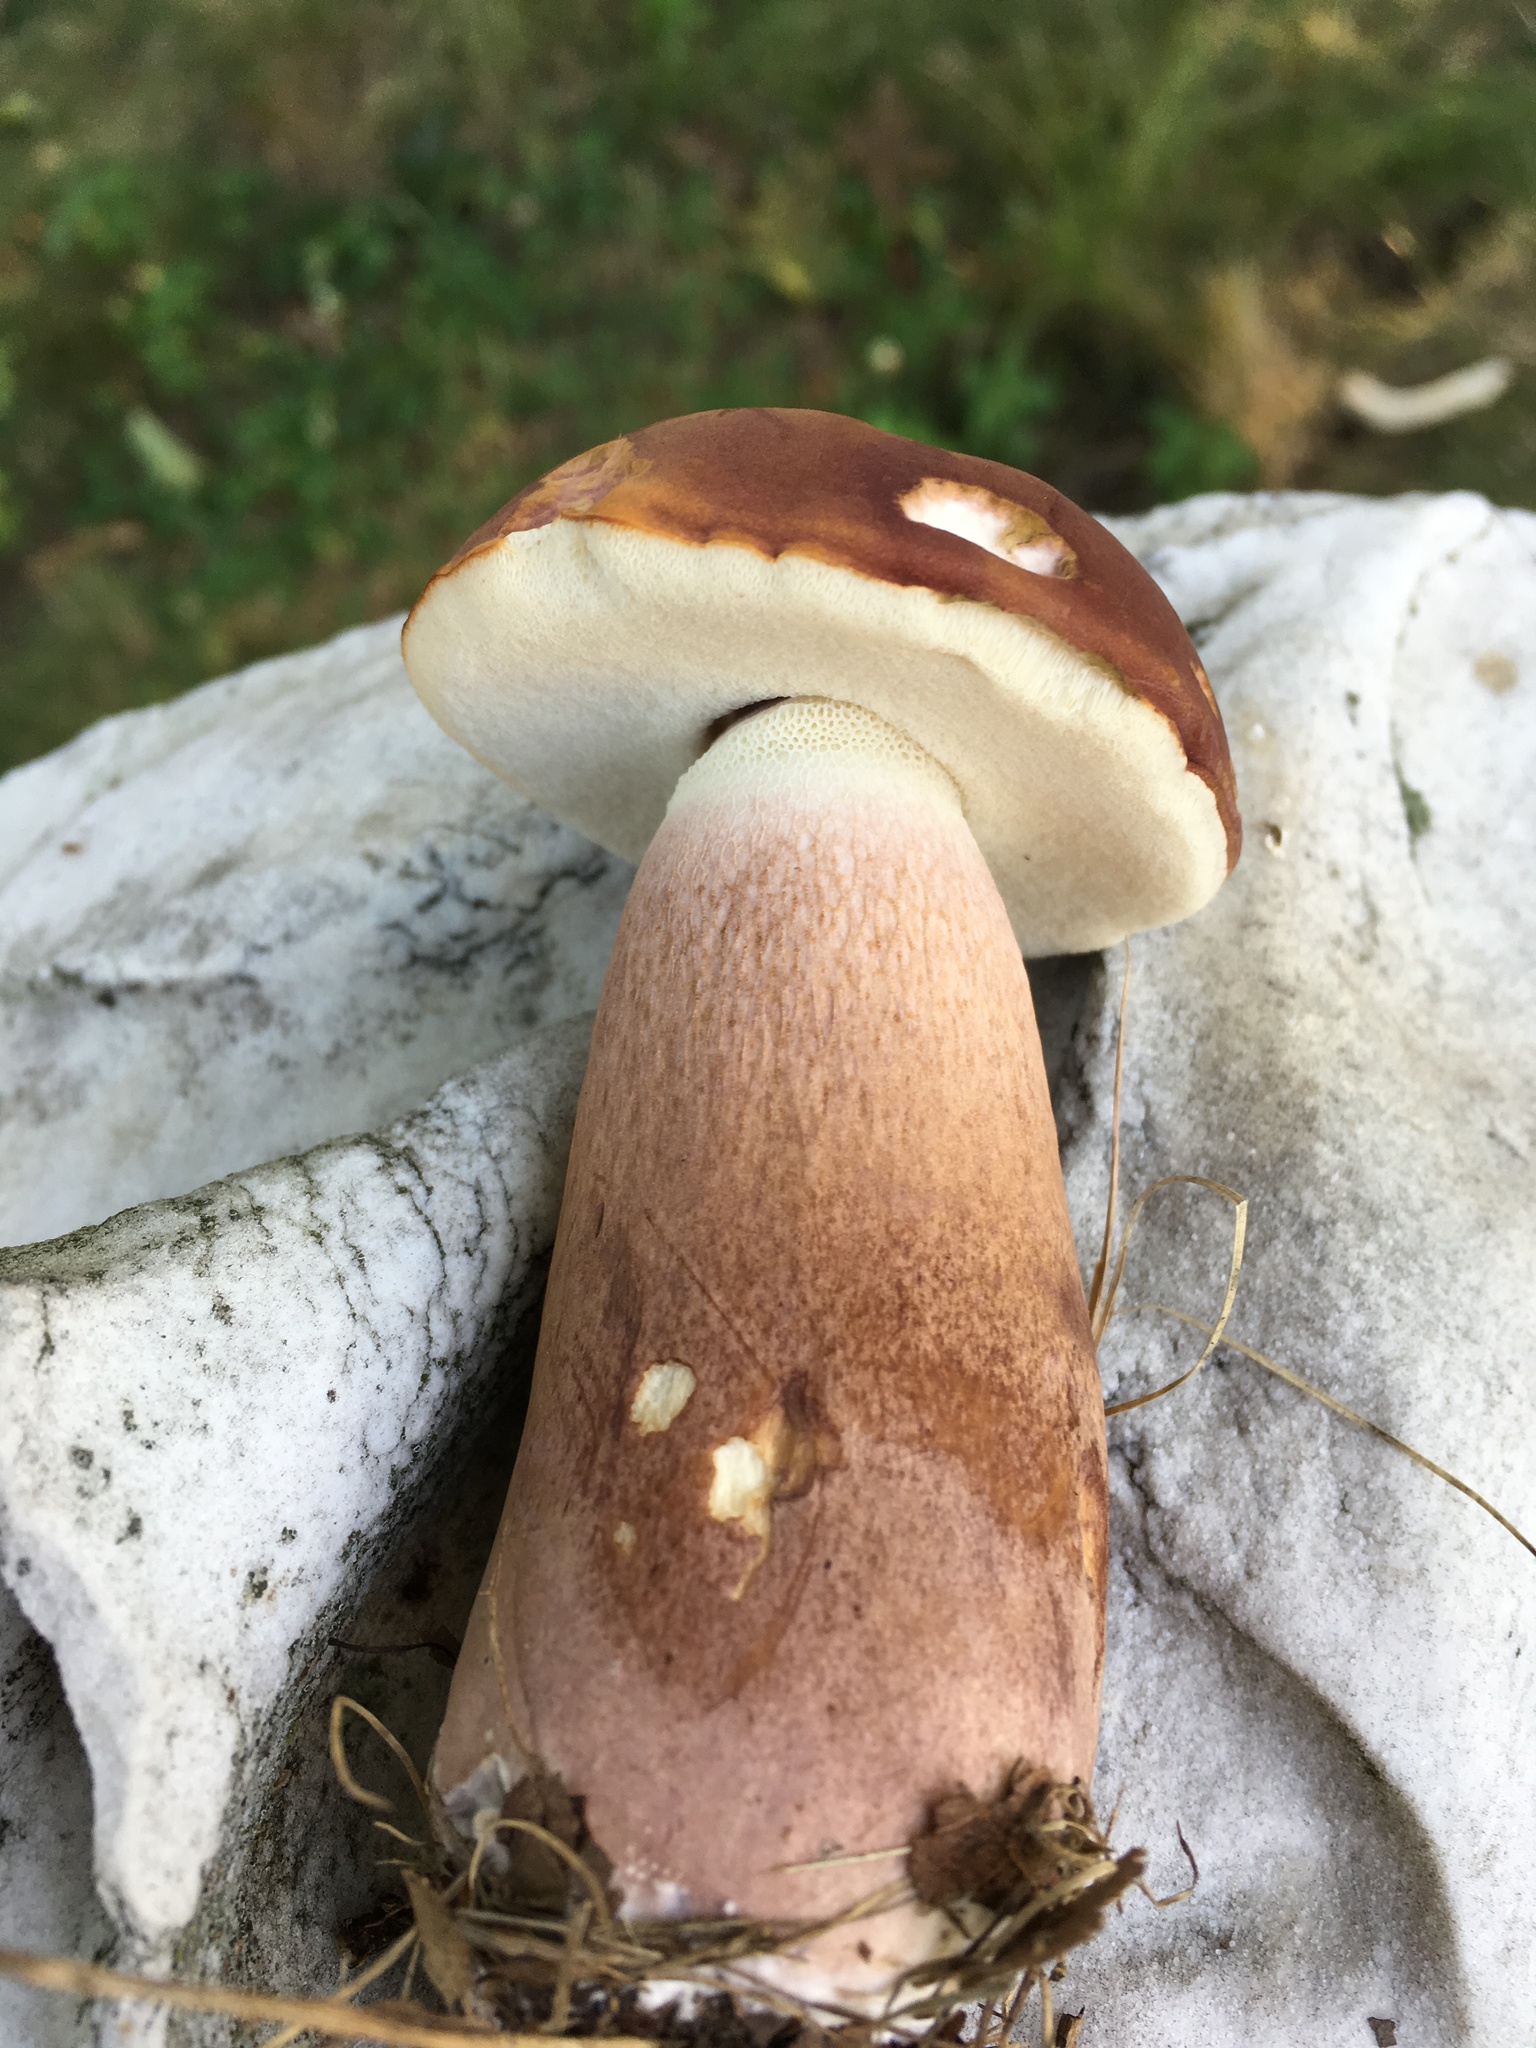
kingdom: Fungi
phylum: Basidiomycota
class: Agaricomycetes
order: Boletales
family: Boletaceae
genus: Tylopilus
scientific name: Tylopilus badiceps
